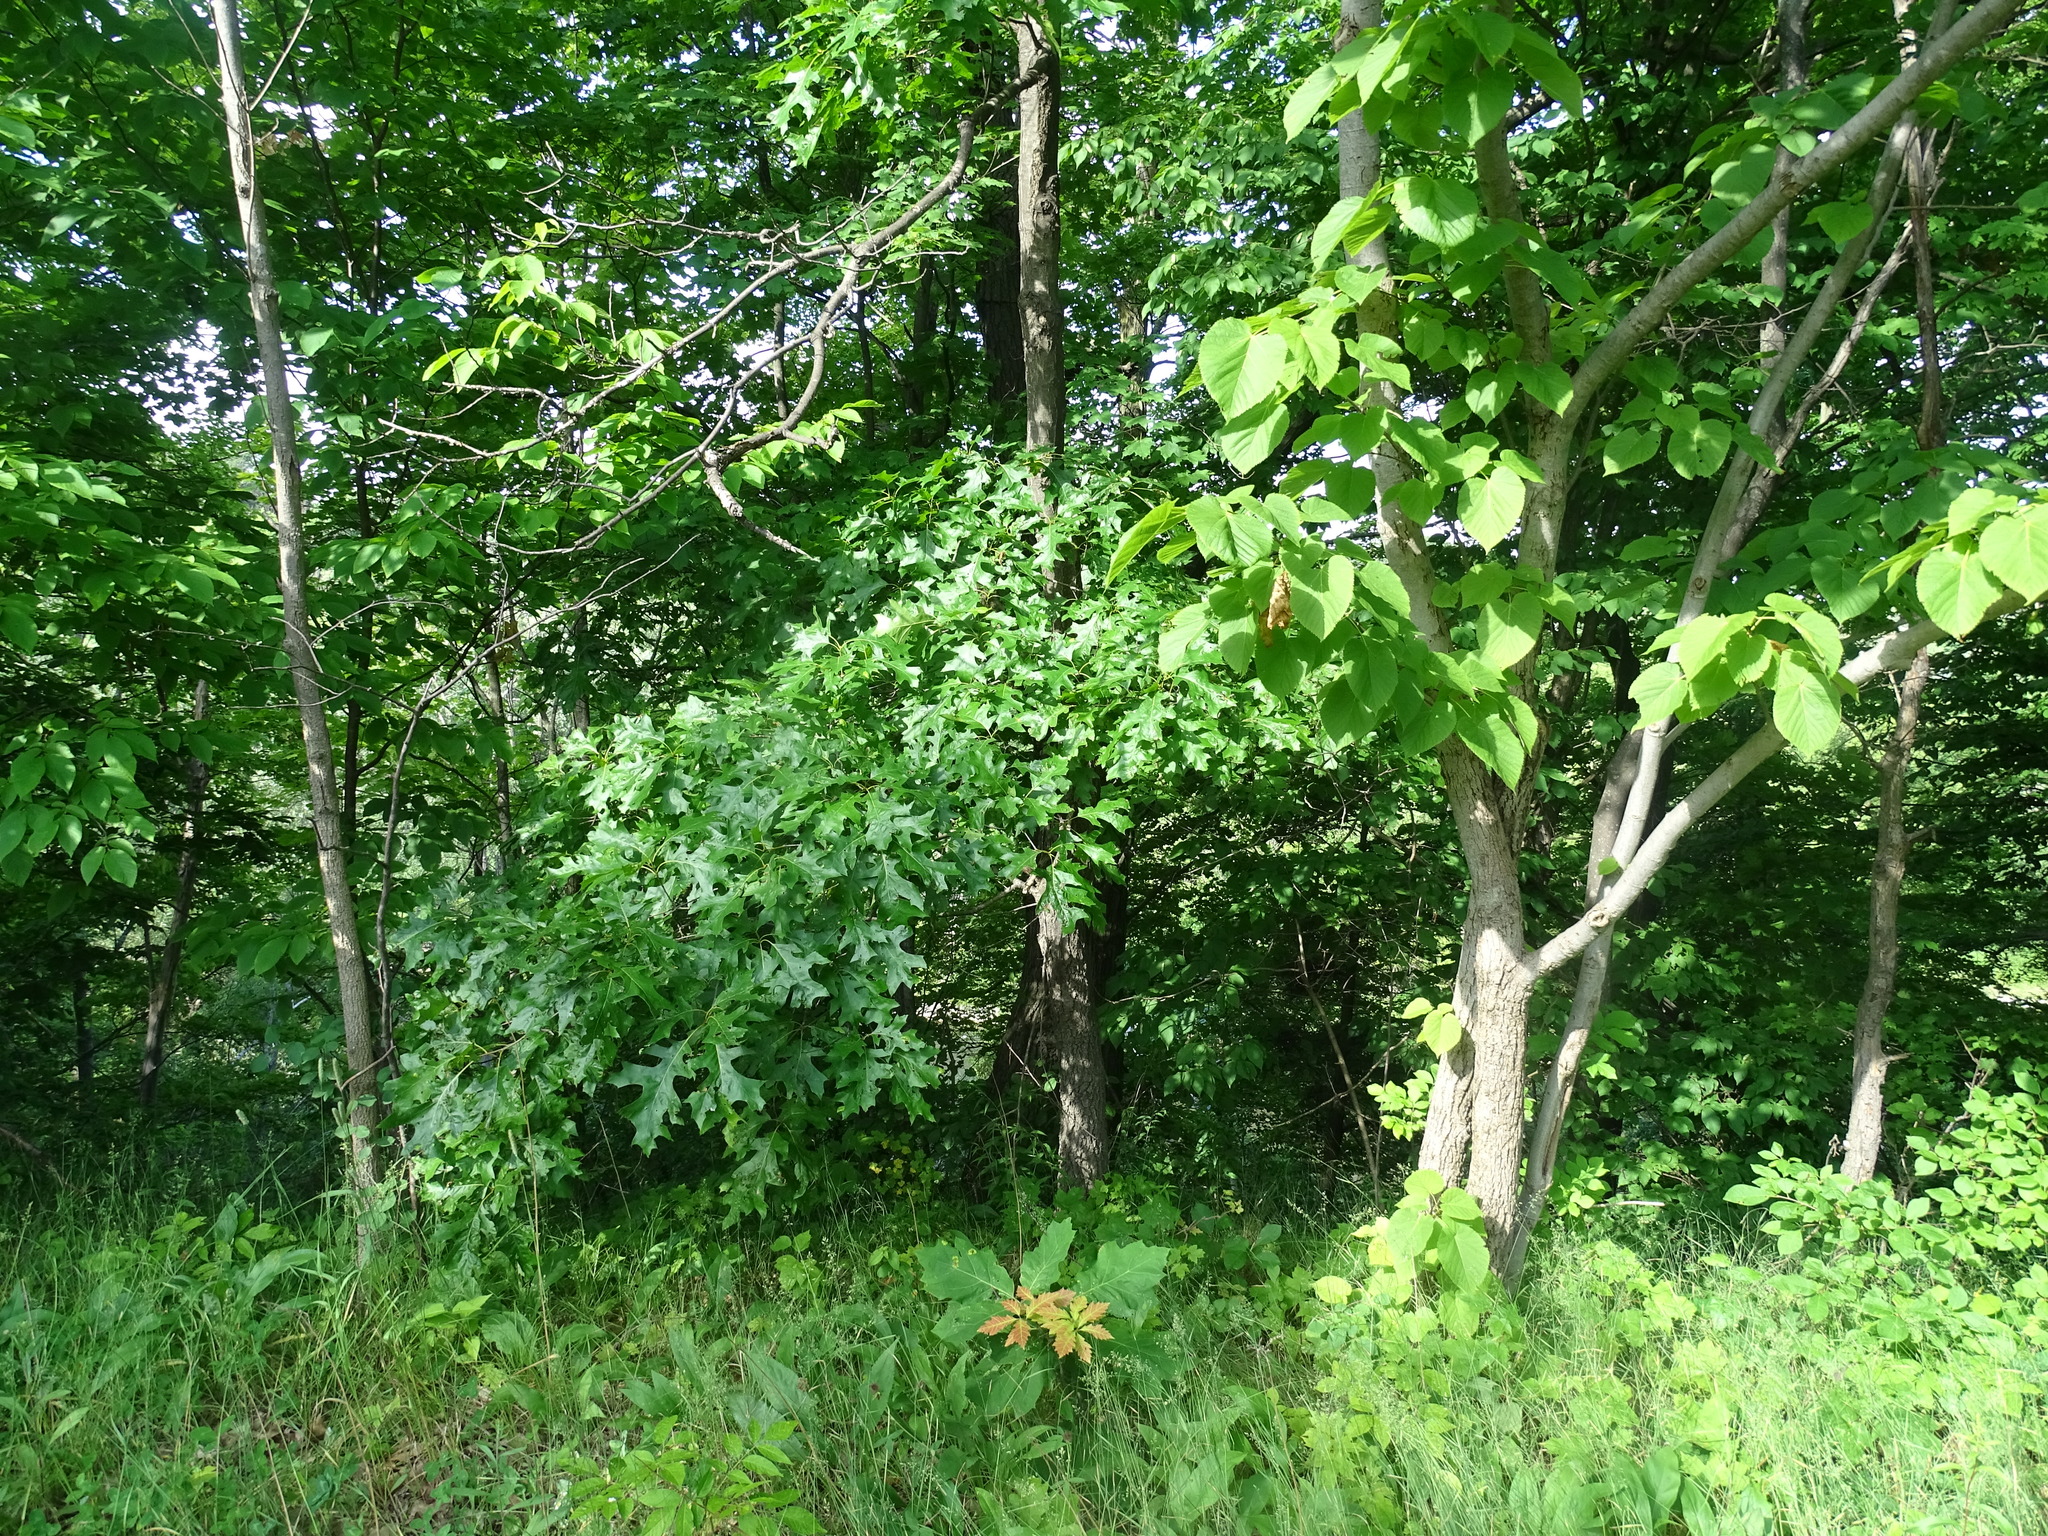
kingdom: Plantae
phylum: Tracheophyta
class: Magnoliopsida
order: Fagales
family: Fagaceae
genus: Quercus
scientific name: Quercus velutina
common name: Black oak
